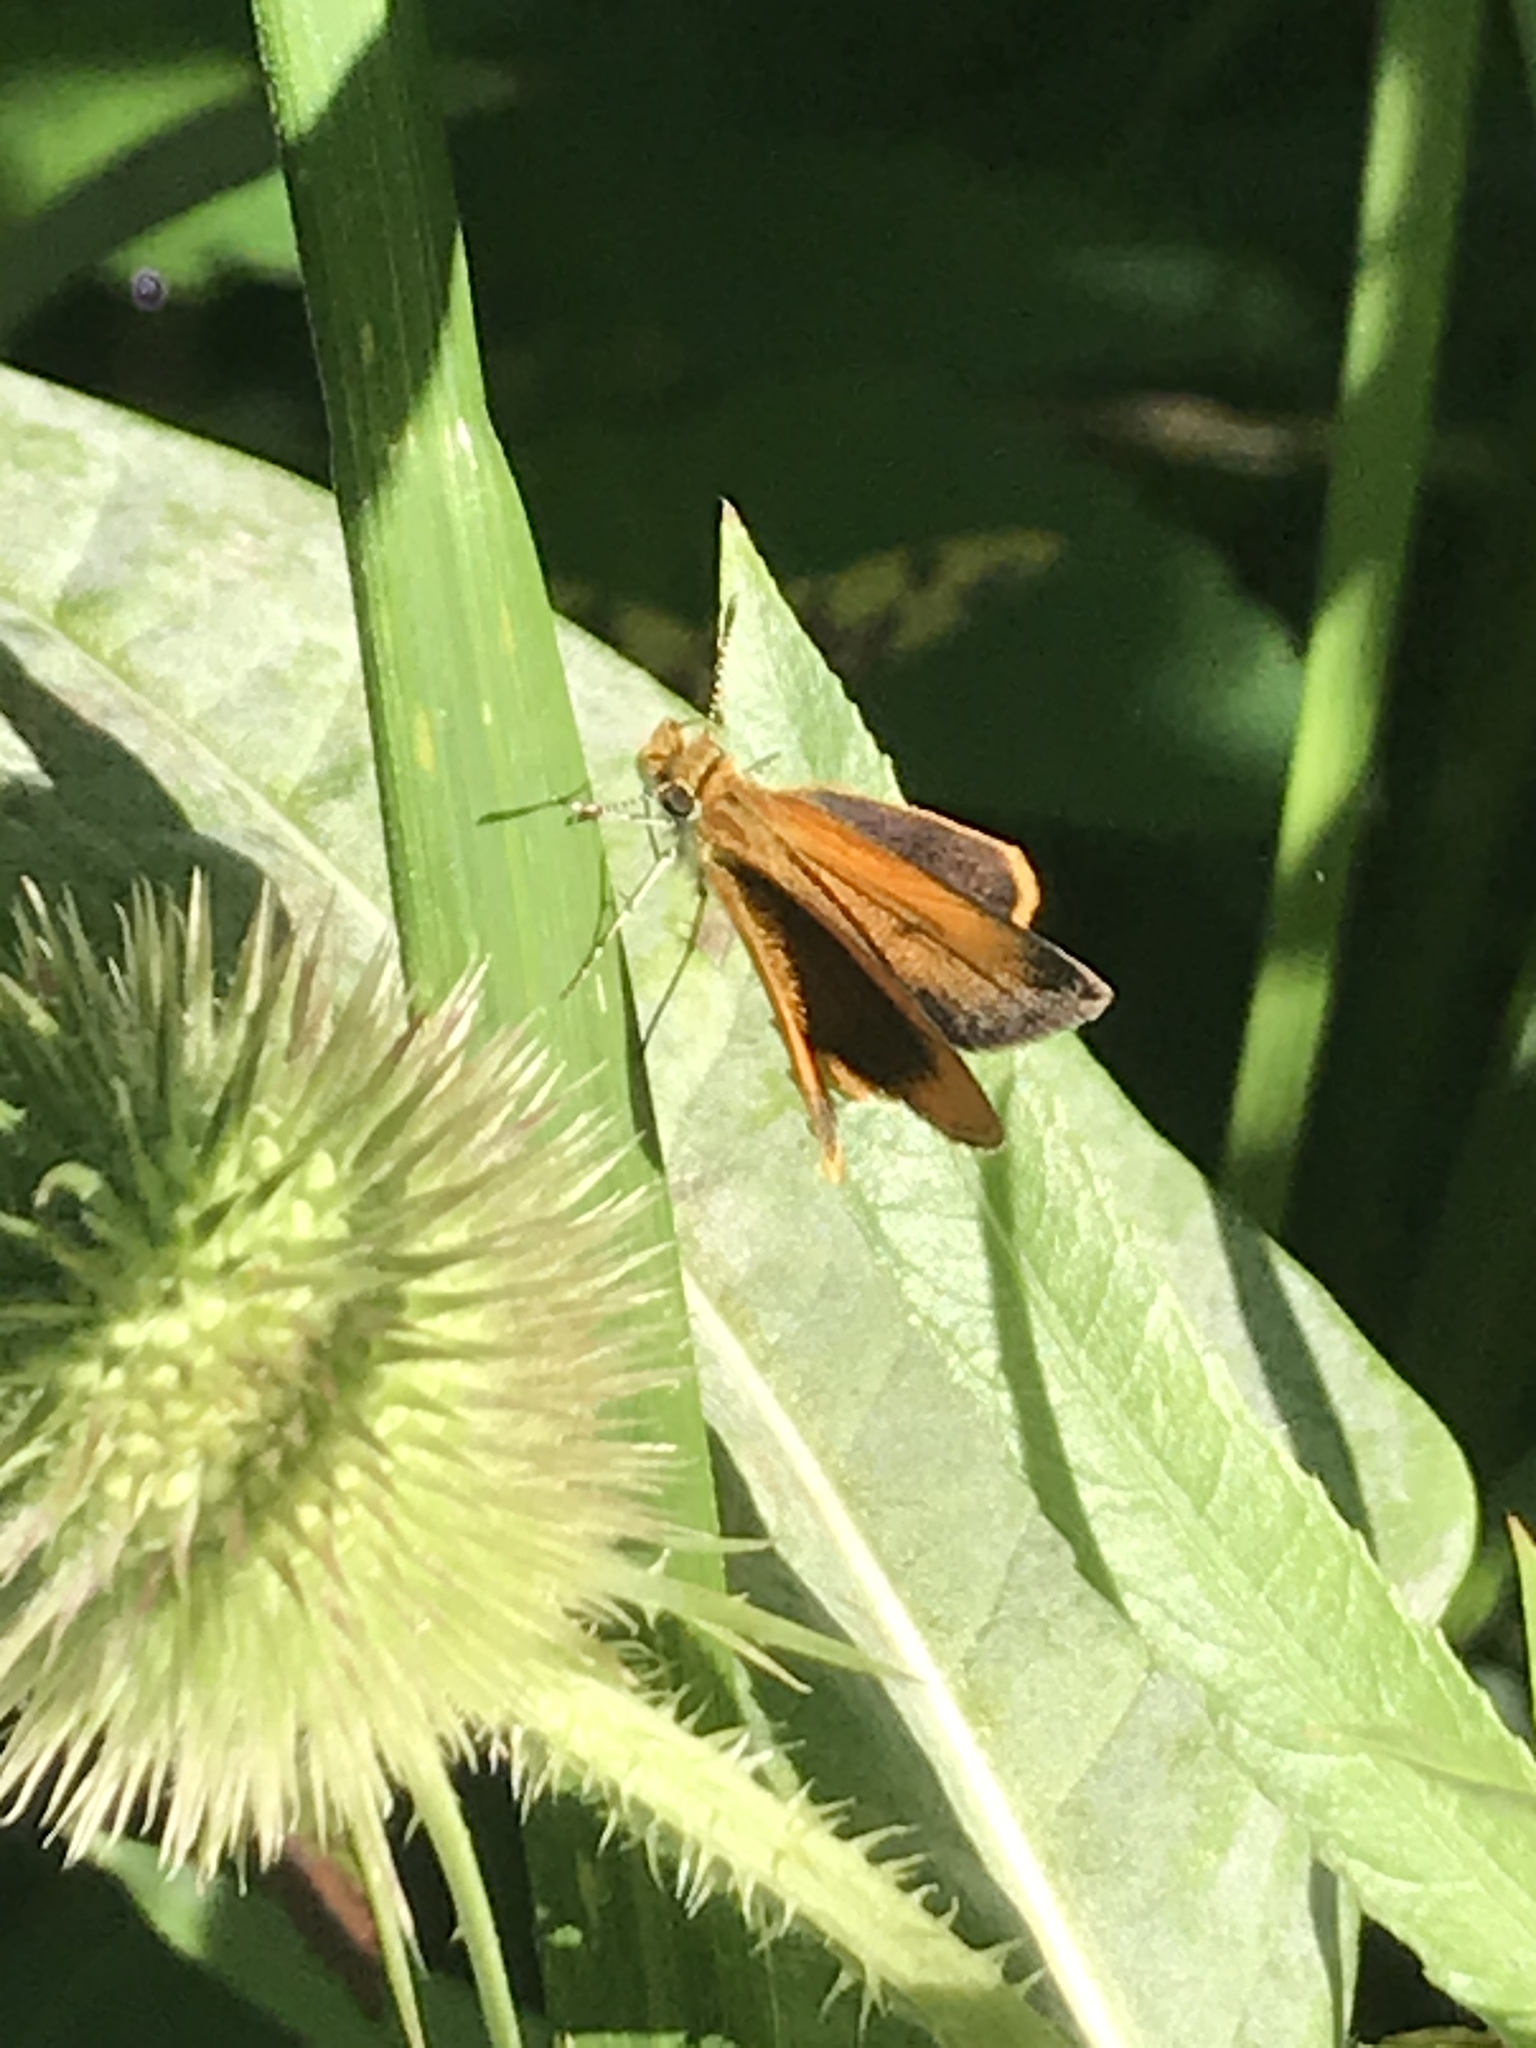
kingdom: Animalia
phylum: Arthropoda
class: Insecta
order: Lepidoptera
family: Hesperiidae
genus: Ancyloxypha
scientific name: Ancyloxypha numitor
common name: Least skipper
